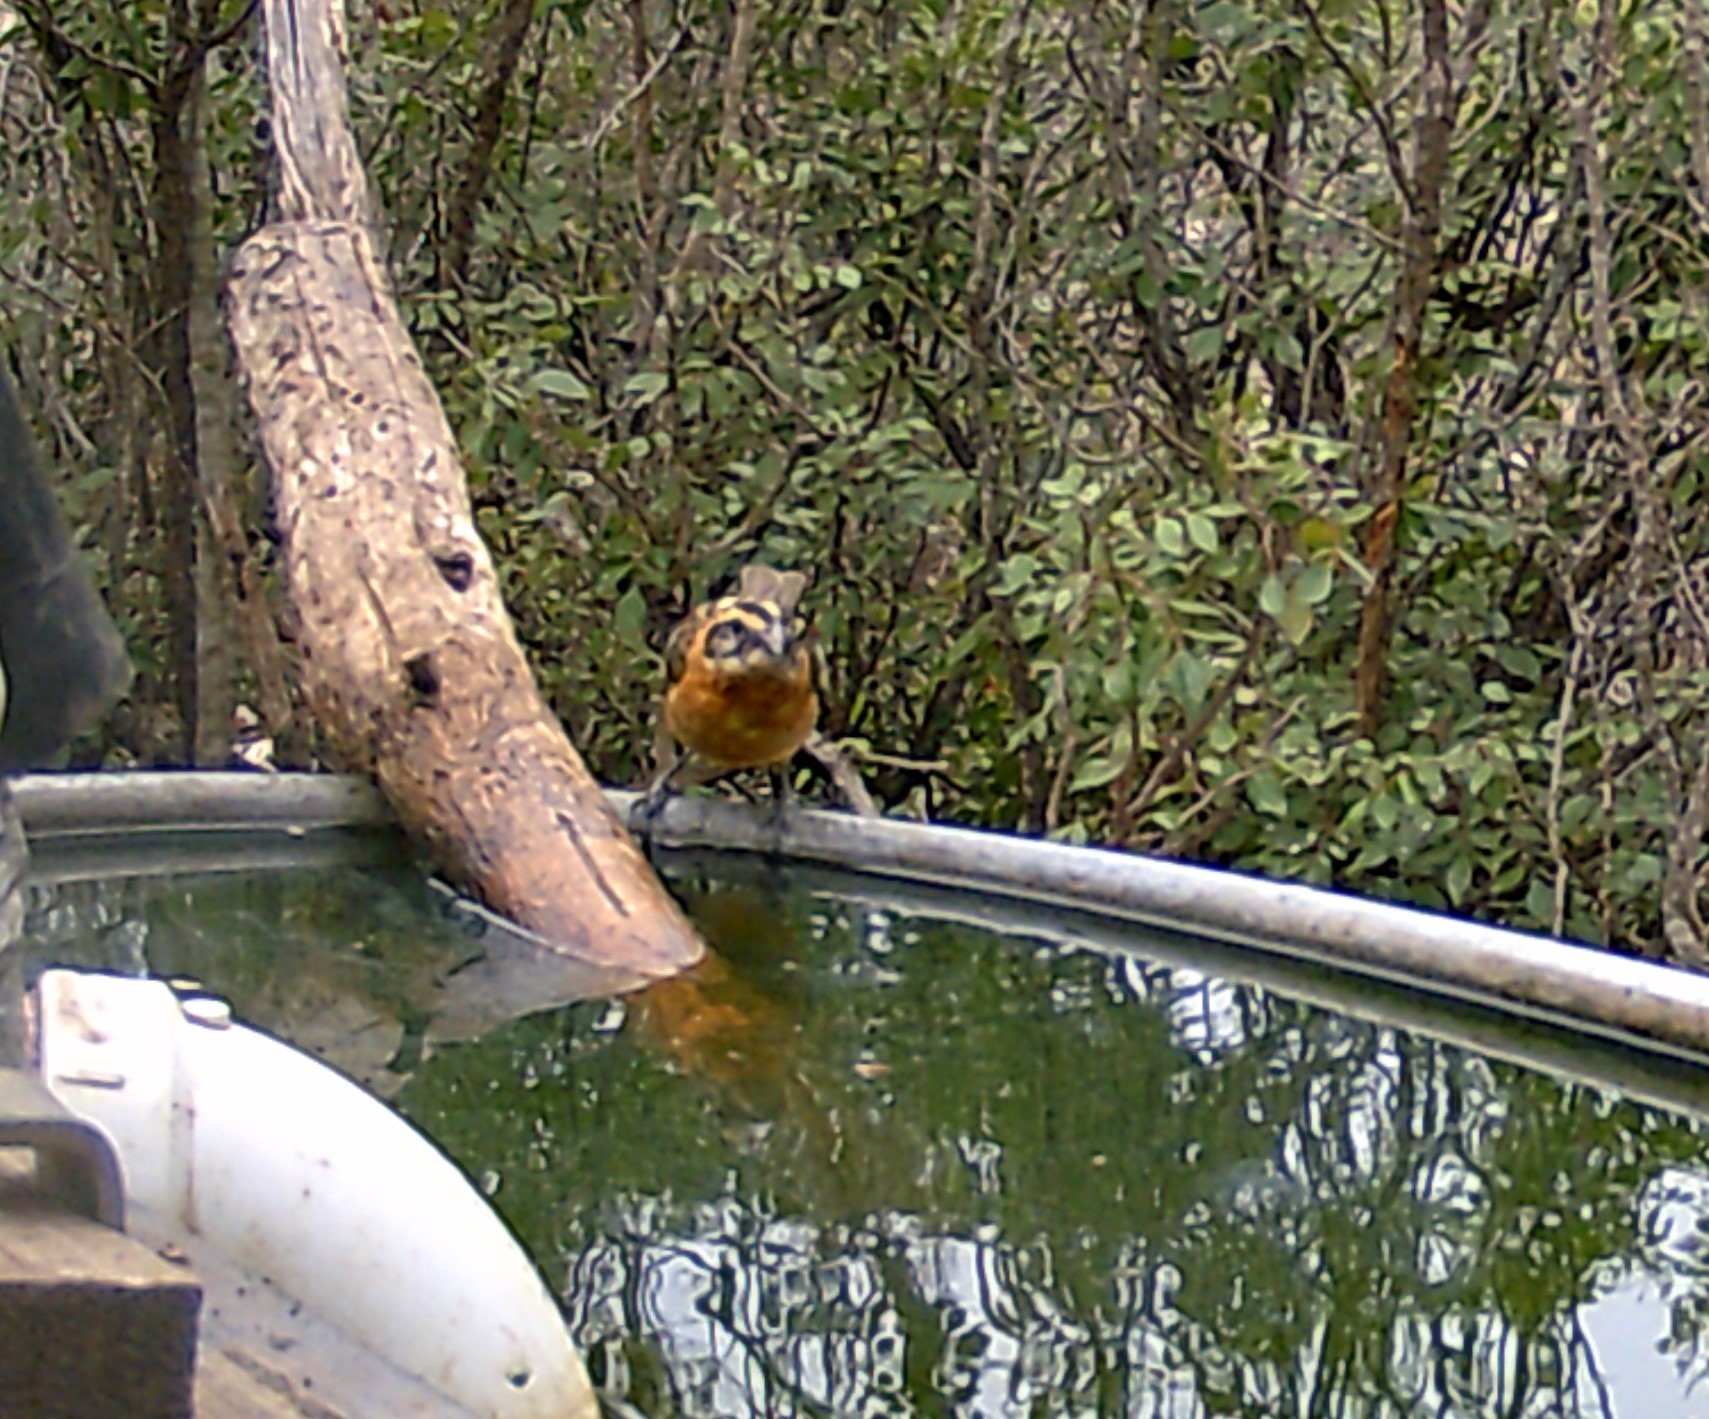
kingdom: Animalia
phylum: Chordata
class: Aves
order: Passeriformes
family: Cardinalidae
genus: Pheucticus
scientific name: Pheucticus melanocephalus
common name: Black-headed grosbeak
